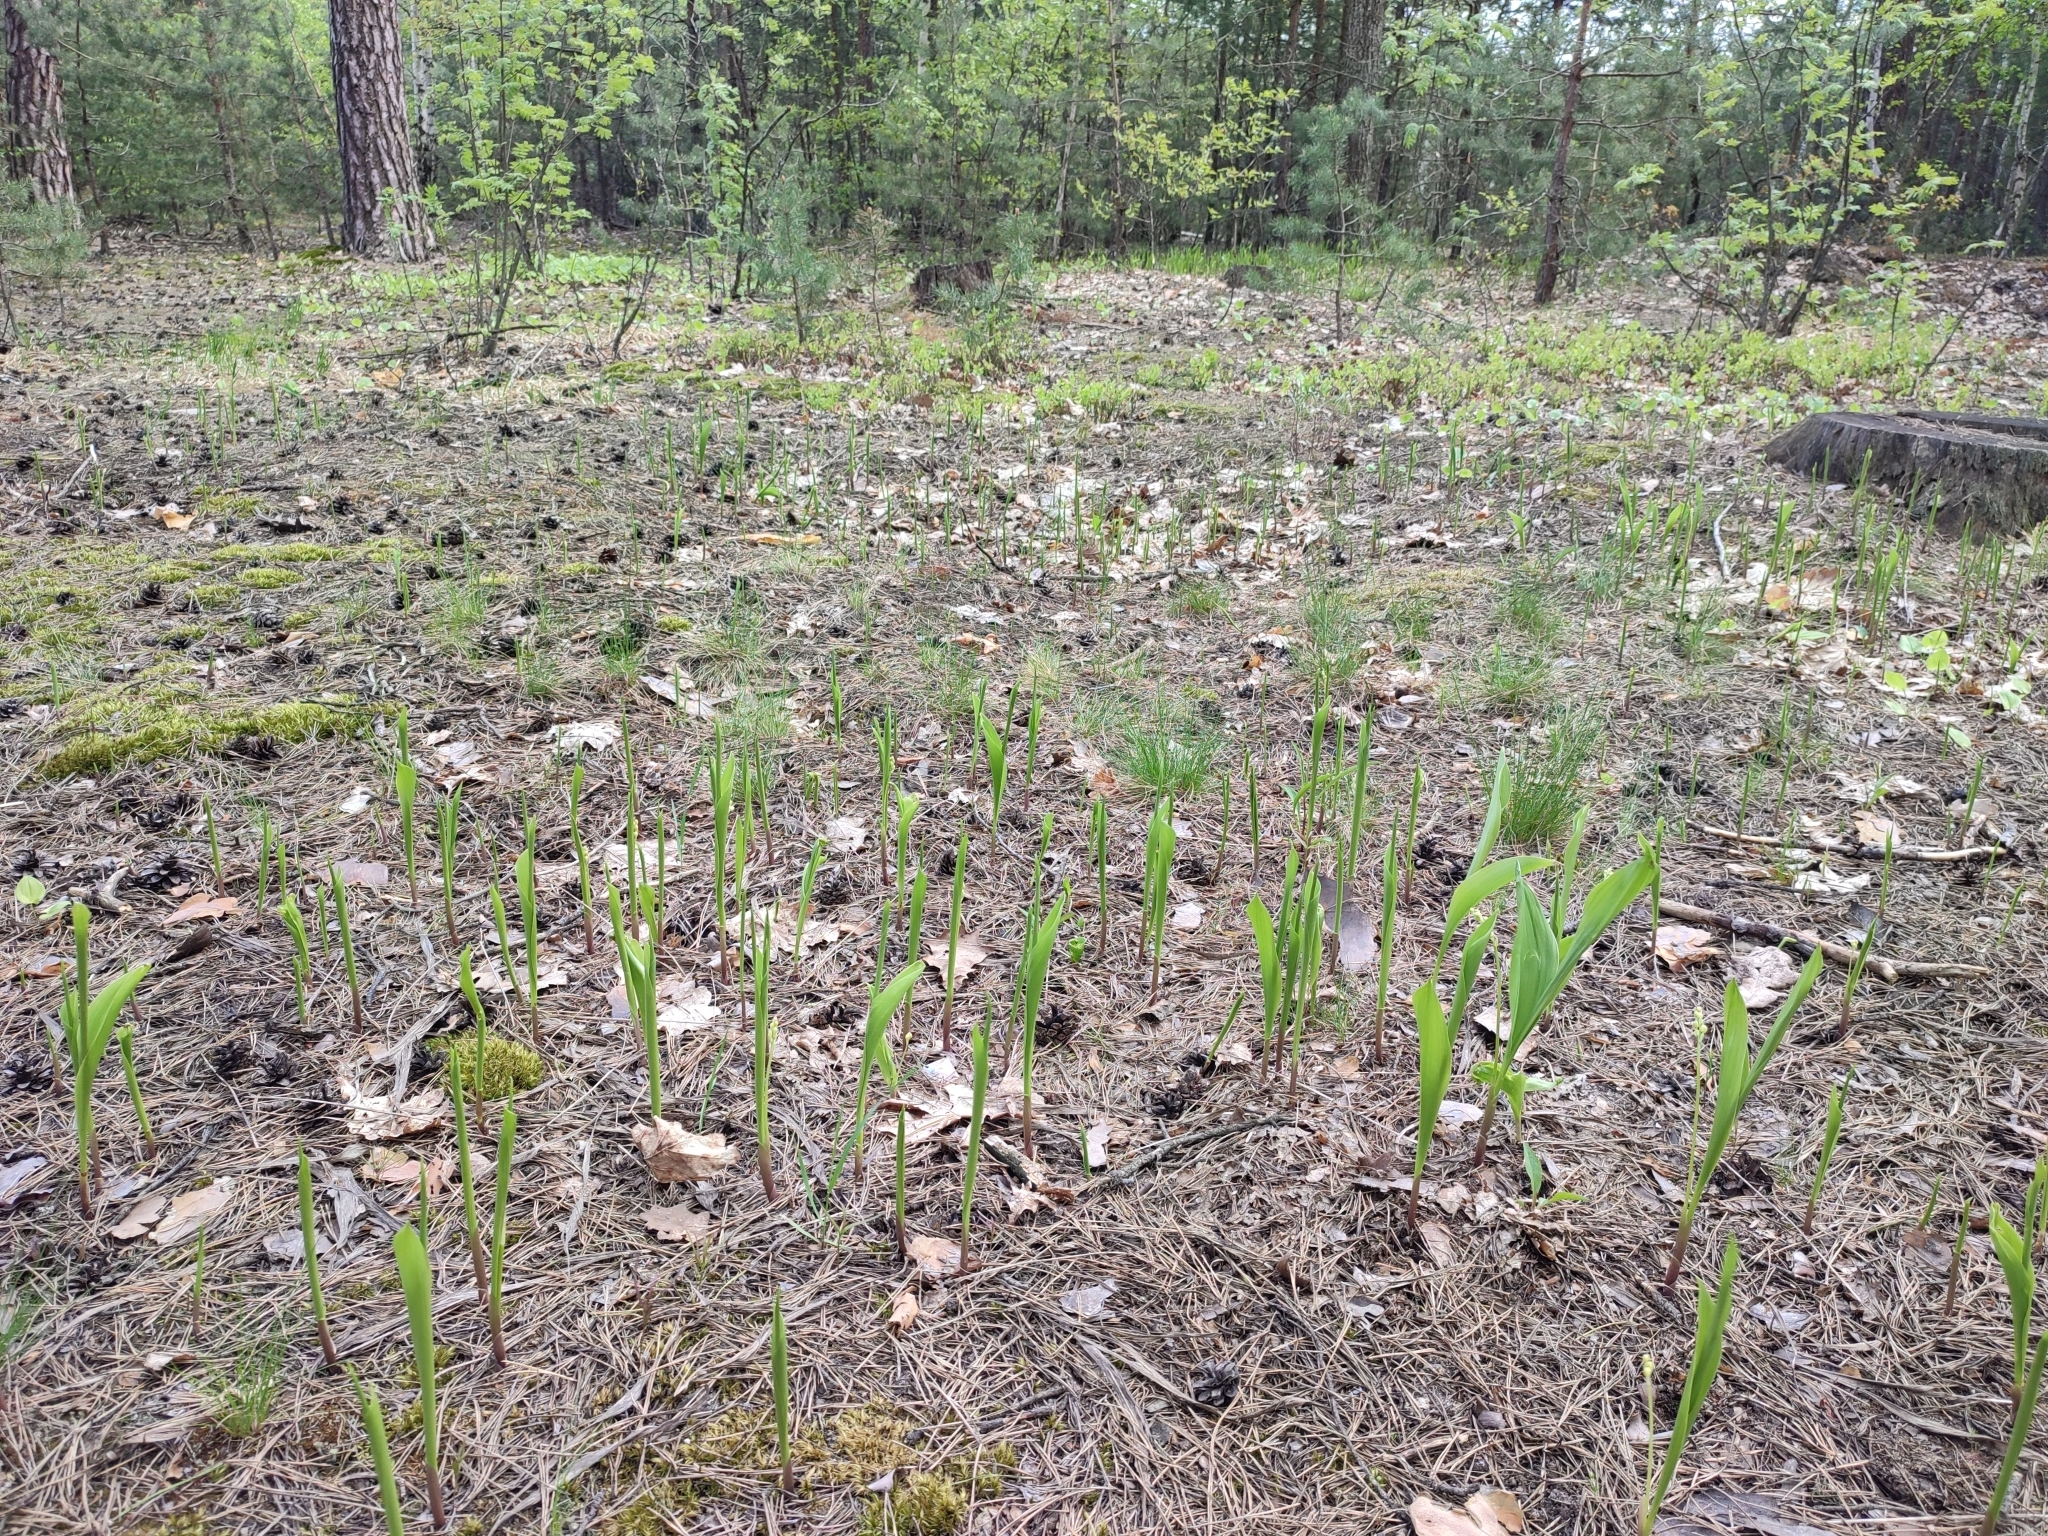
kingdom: Plantae
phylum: Tracheophyta
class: Liliopsida
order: Asparagales
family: Asparagaceae
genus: Convallaria
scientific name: Convallaria majalis
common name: Lily-of-the-valley
